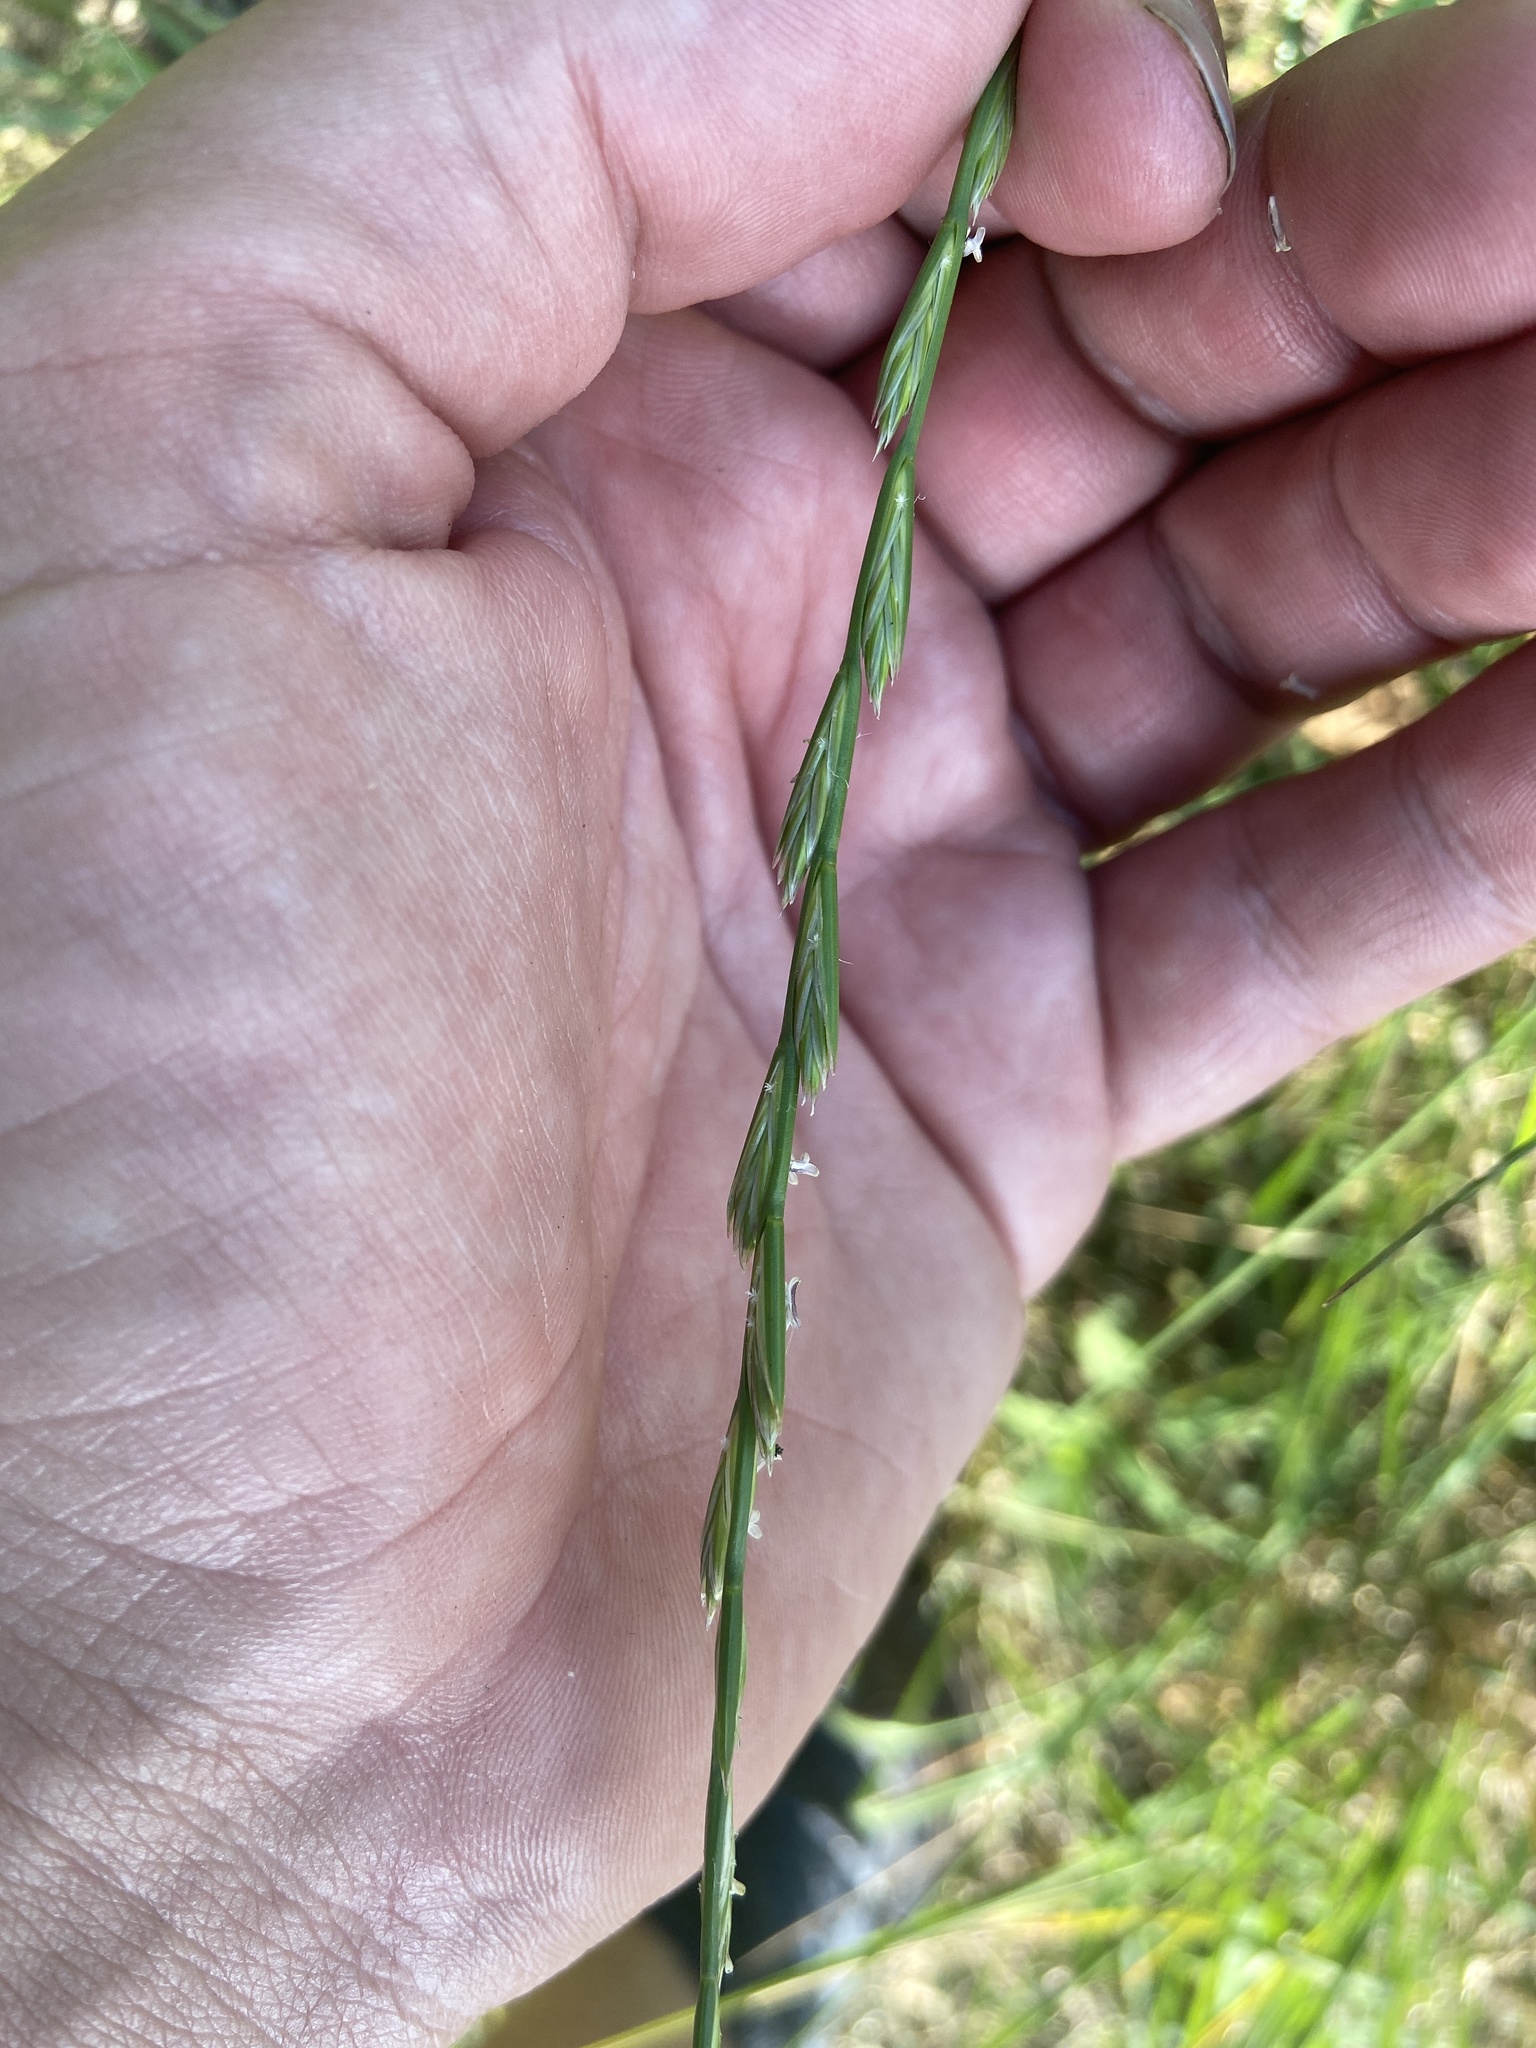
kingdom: Plantae
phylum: Tracheophyta
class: Liliopsida
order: Poales
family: Poaceae
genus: Lolium
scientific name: Lolium perenne
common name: Perennial ryegrass
